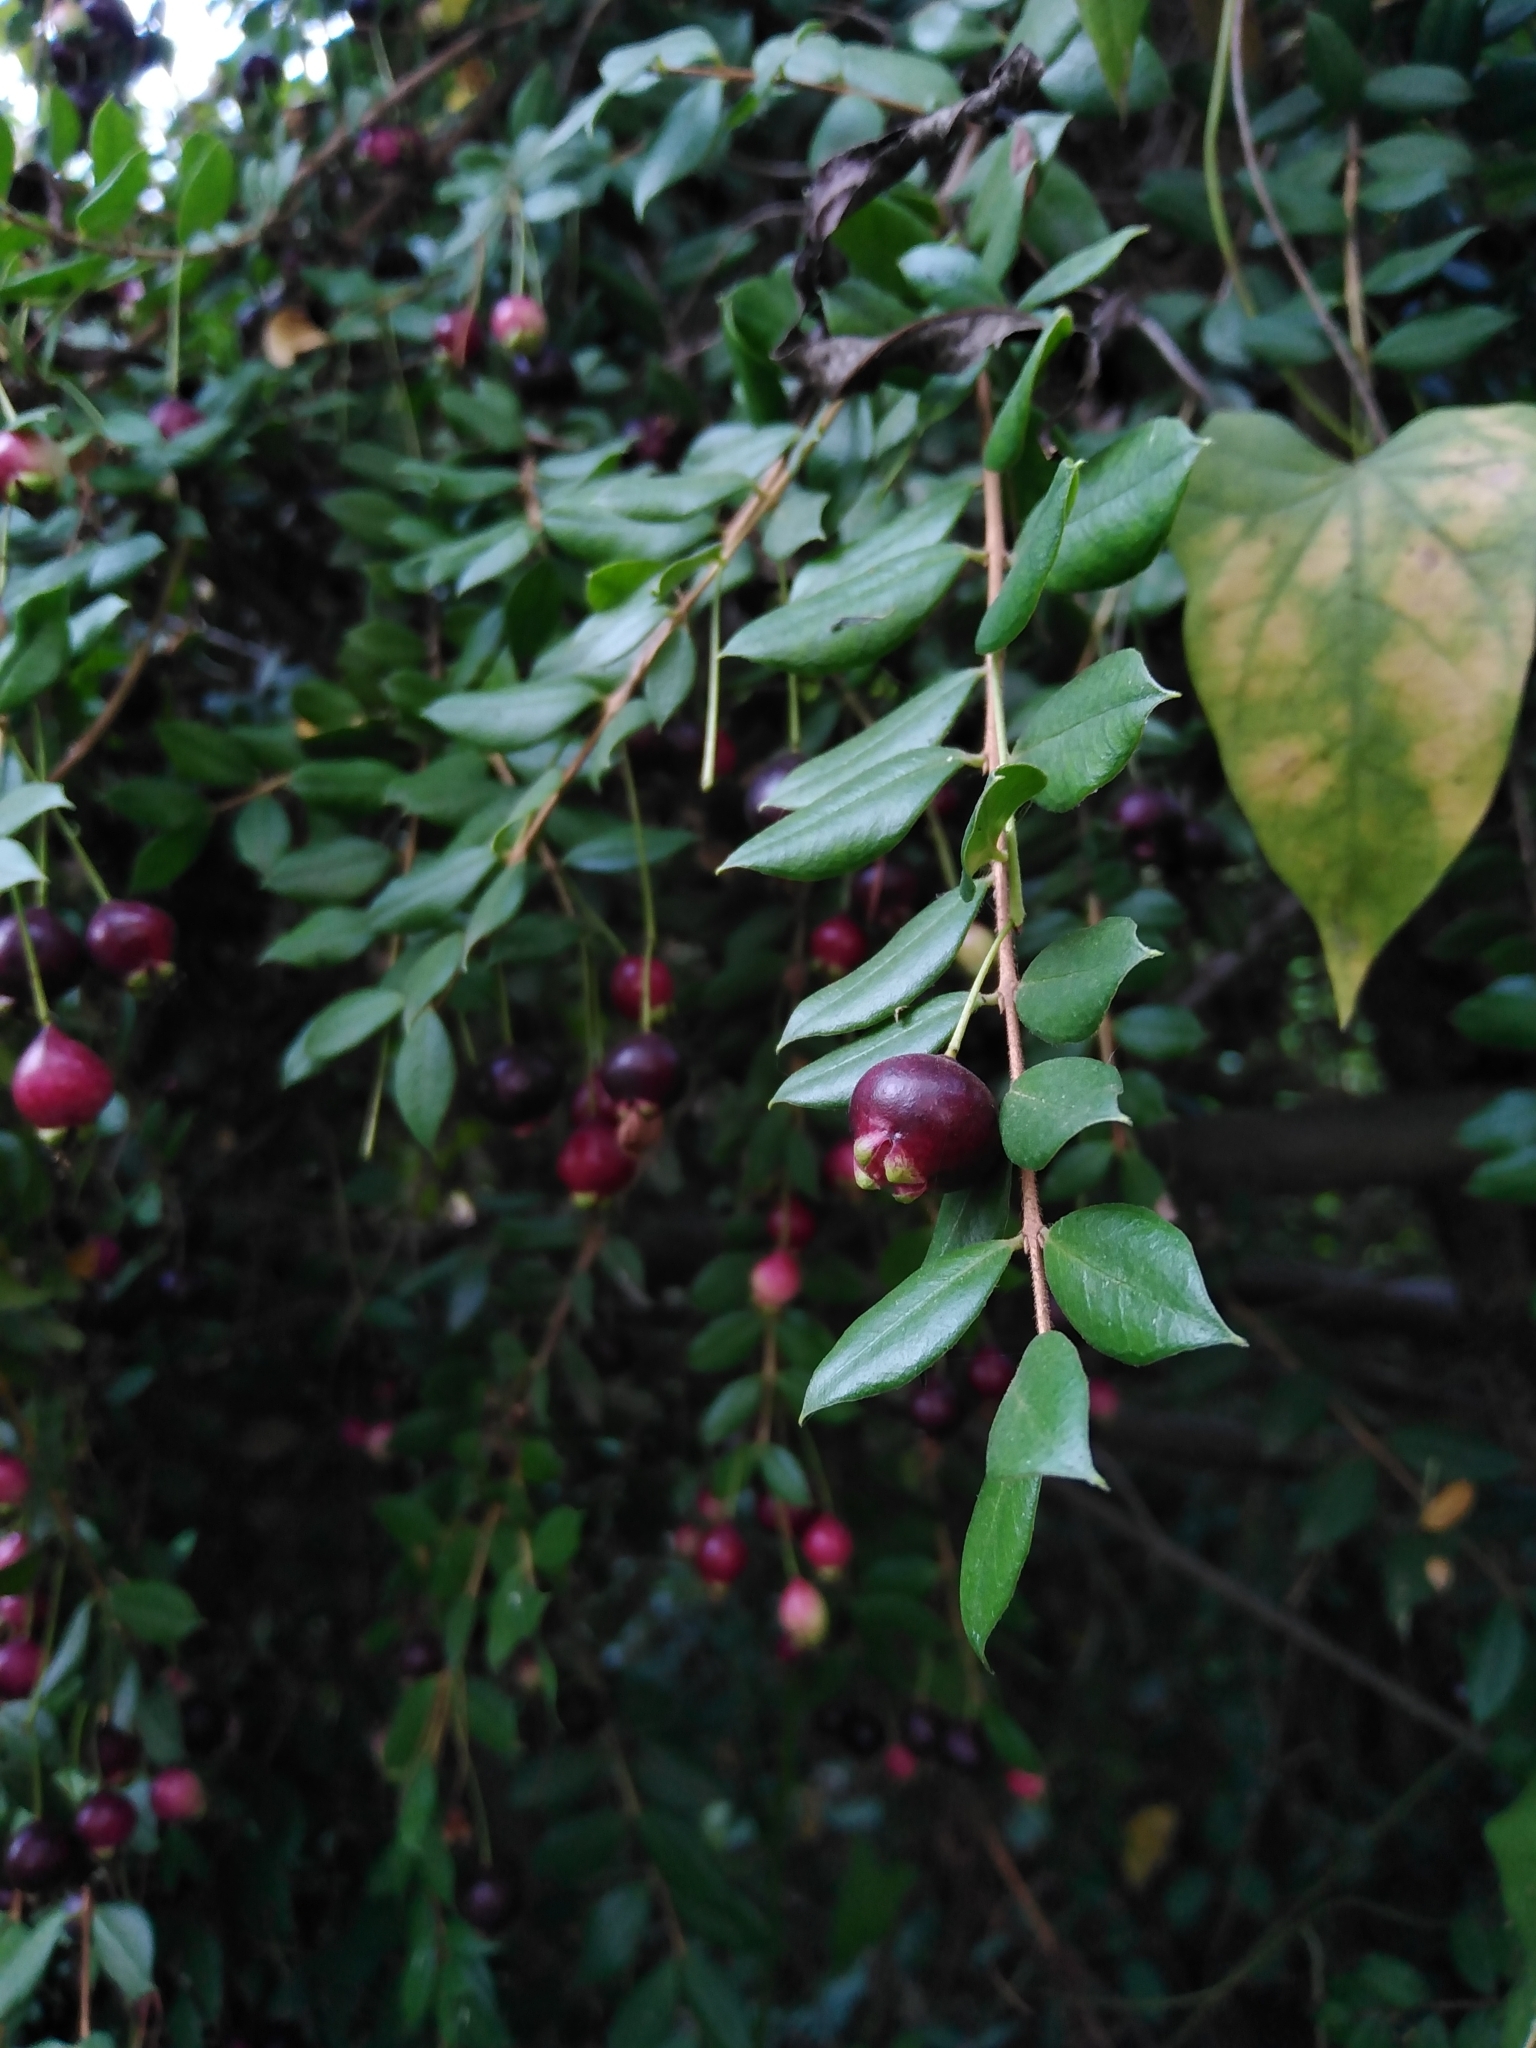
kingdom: Plantae
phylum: Tracheophyta
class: Magnoliopsida
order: Myrtales
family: Myrtaceae
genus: Luma
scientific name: Luma apiculata
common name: Chilean myrtle
